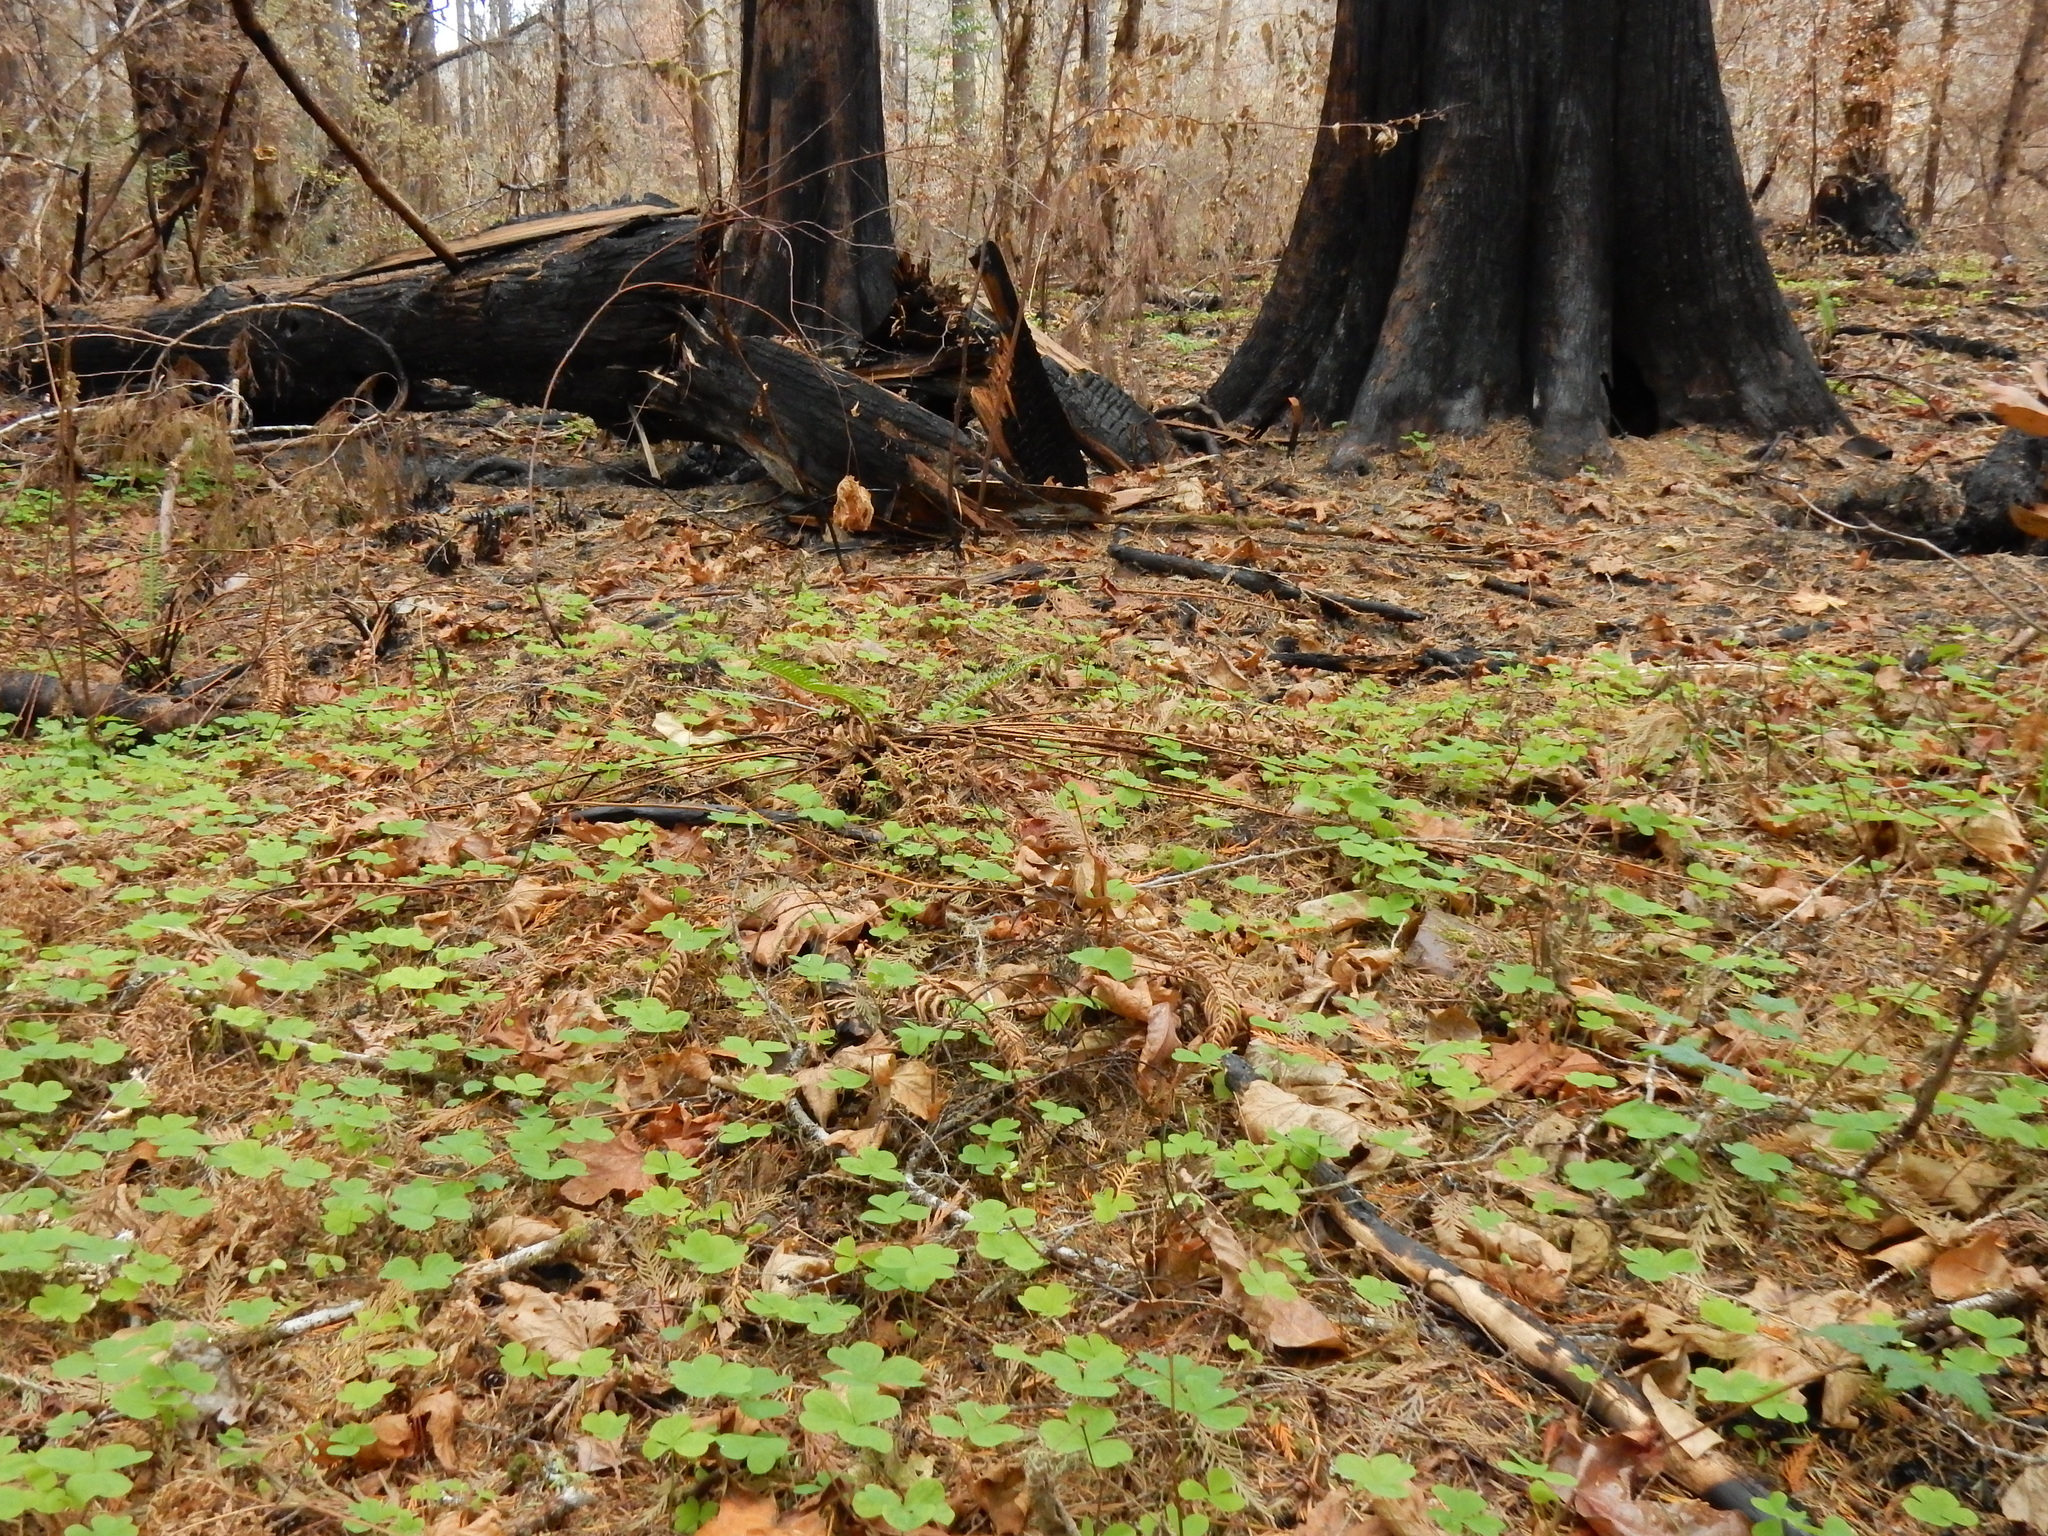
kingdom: Plantae
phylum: Tracheophyta
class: Magnoliopsida
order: Oxalidales
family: Oxalidaceae
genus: Oxalis
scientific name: Oxalis oregana
